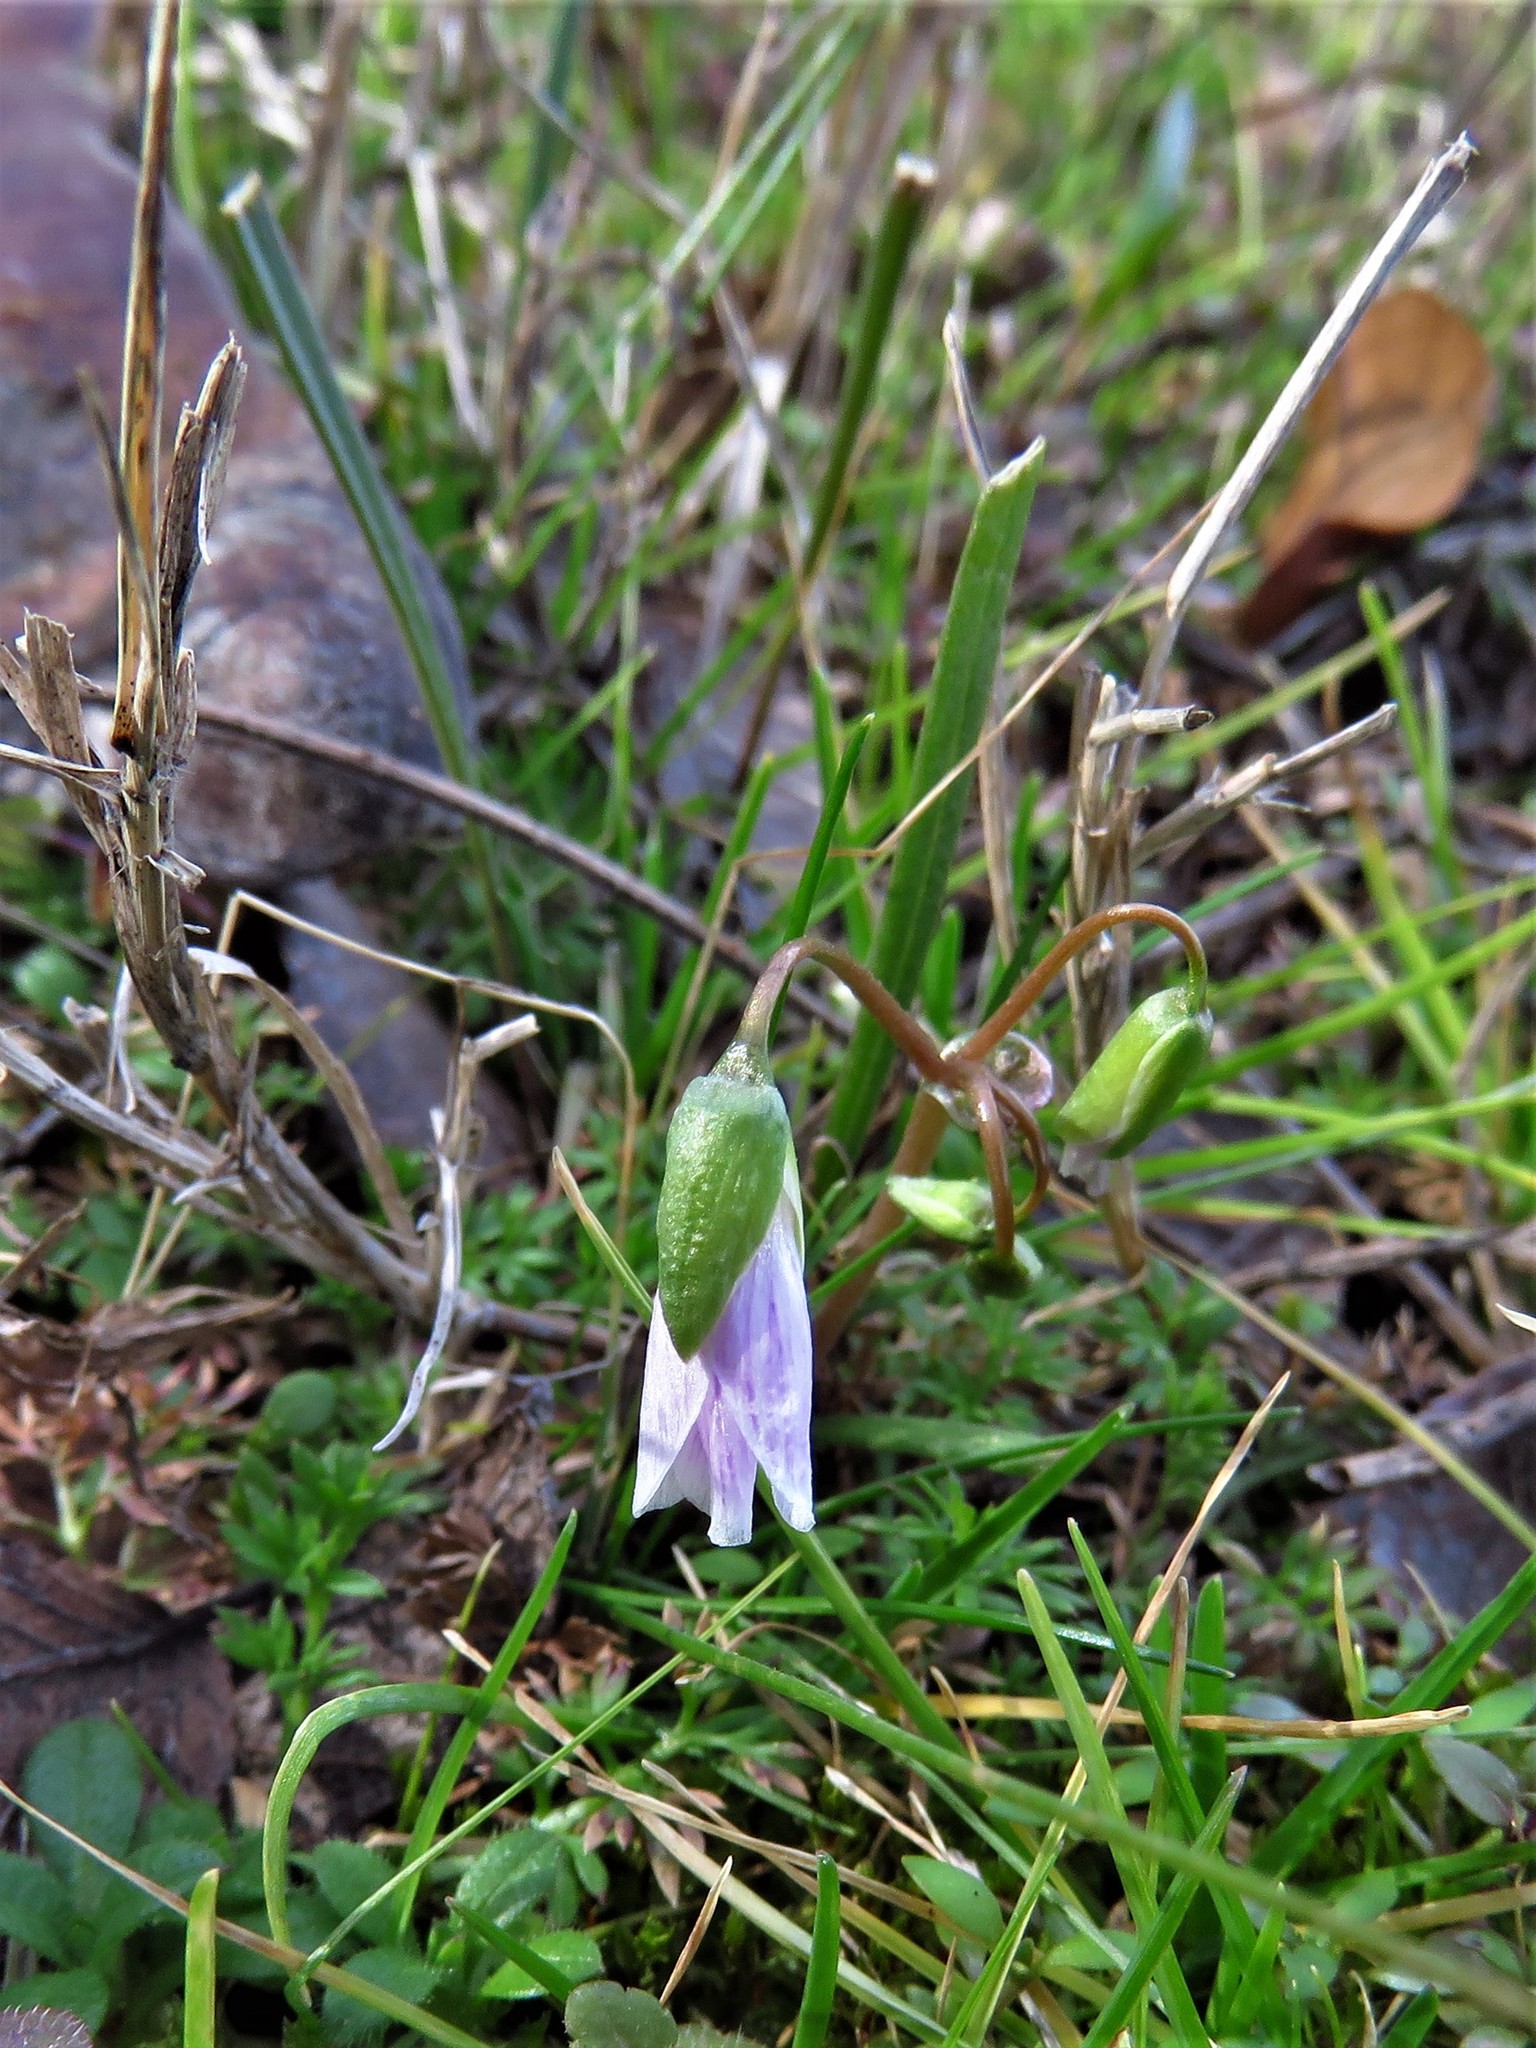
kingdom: Plantae
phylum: Tracheophyta
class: Magnoliopsida
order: Caryophyllales
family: Montiaceae
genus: Claytonia
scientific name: Claytonia virginica
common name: Virginia springbeauty
